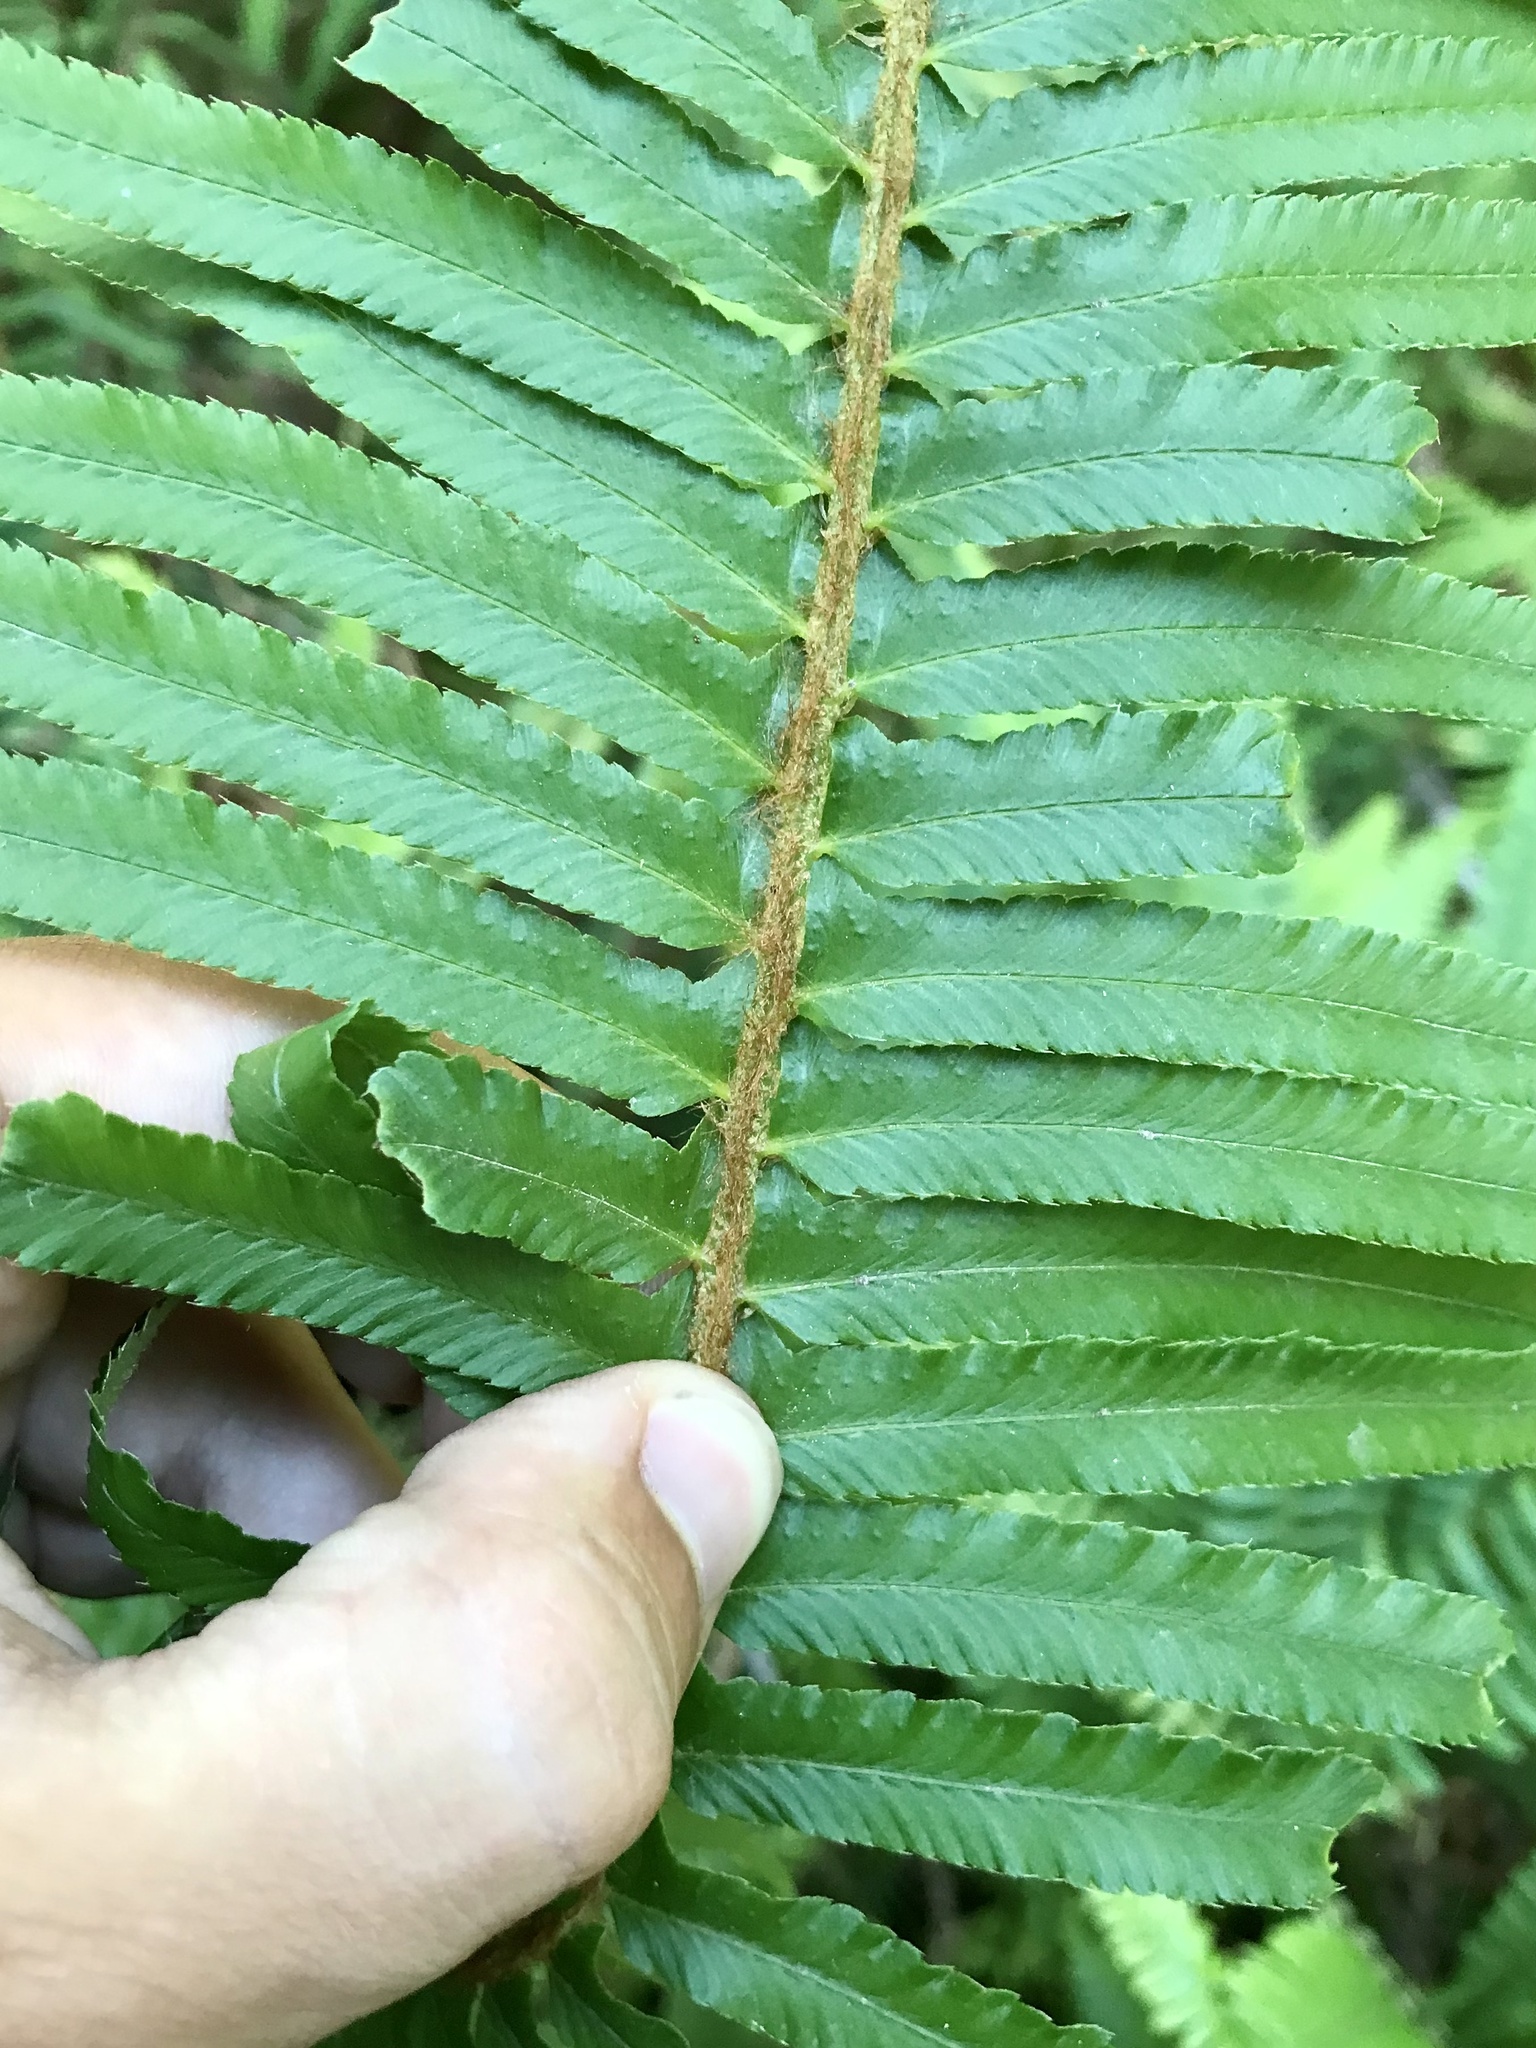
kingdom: Plantae
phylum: Tracheophyta
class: Polypodiopsida
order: Polypodiales
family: Dryopteridaceae
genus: Polystichum
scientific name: Polystichum munitum
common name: Western sword-fern
